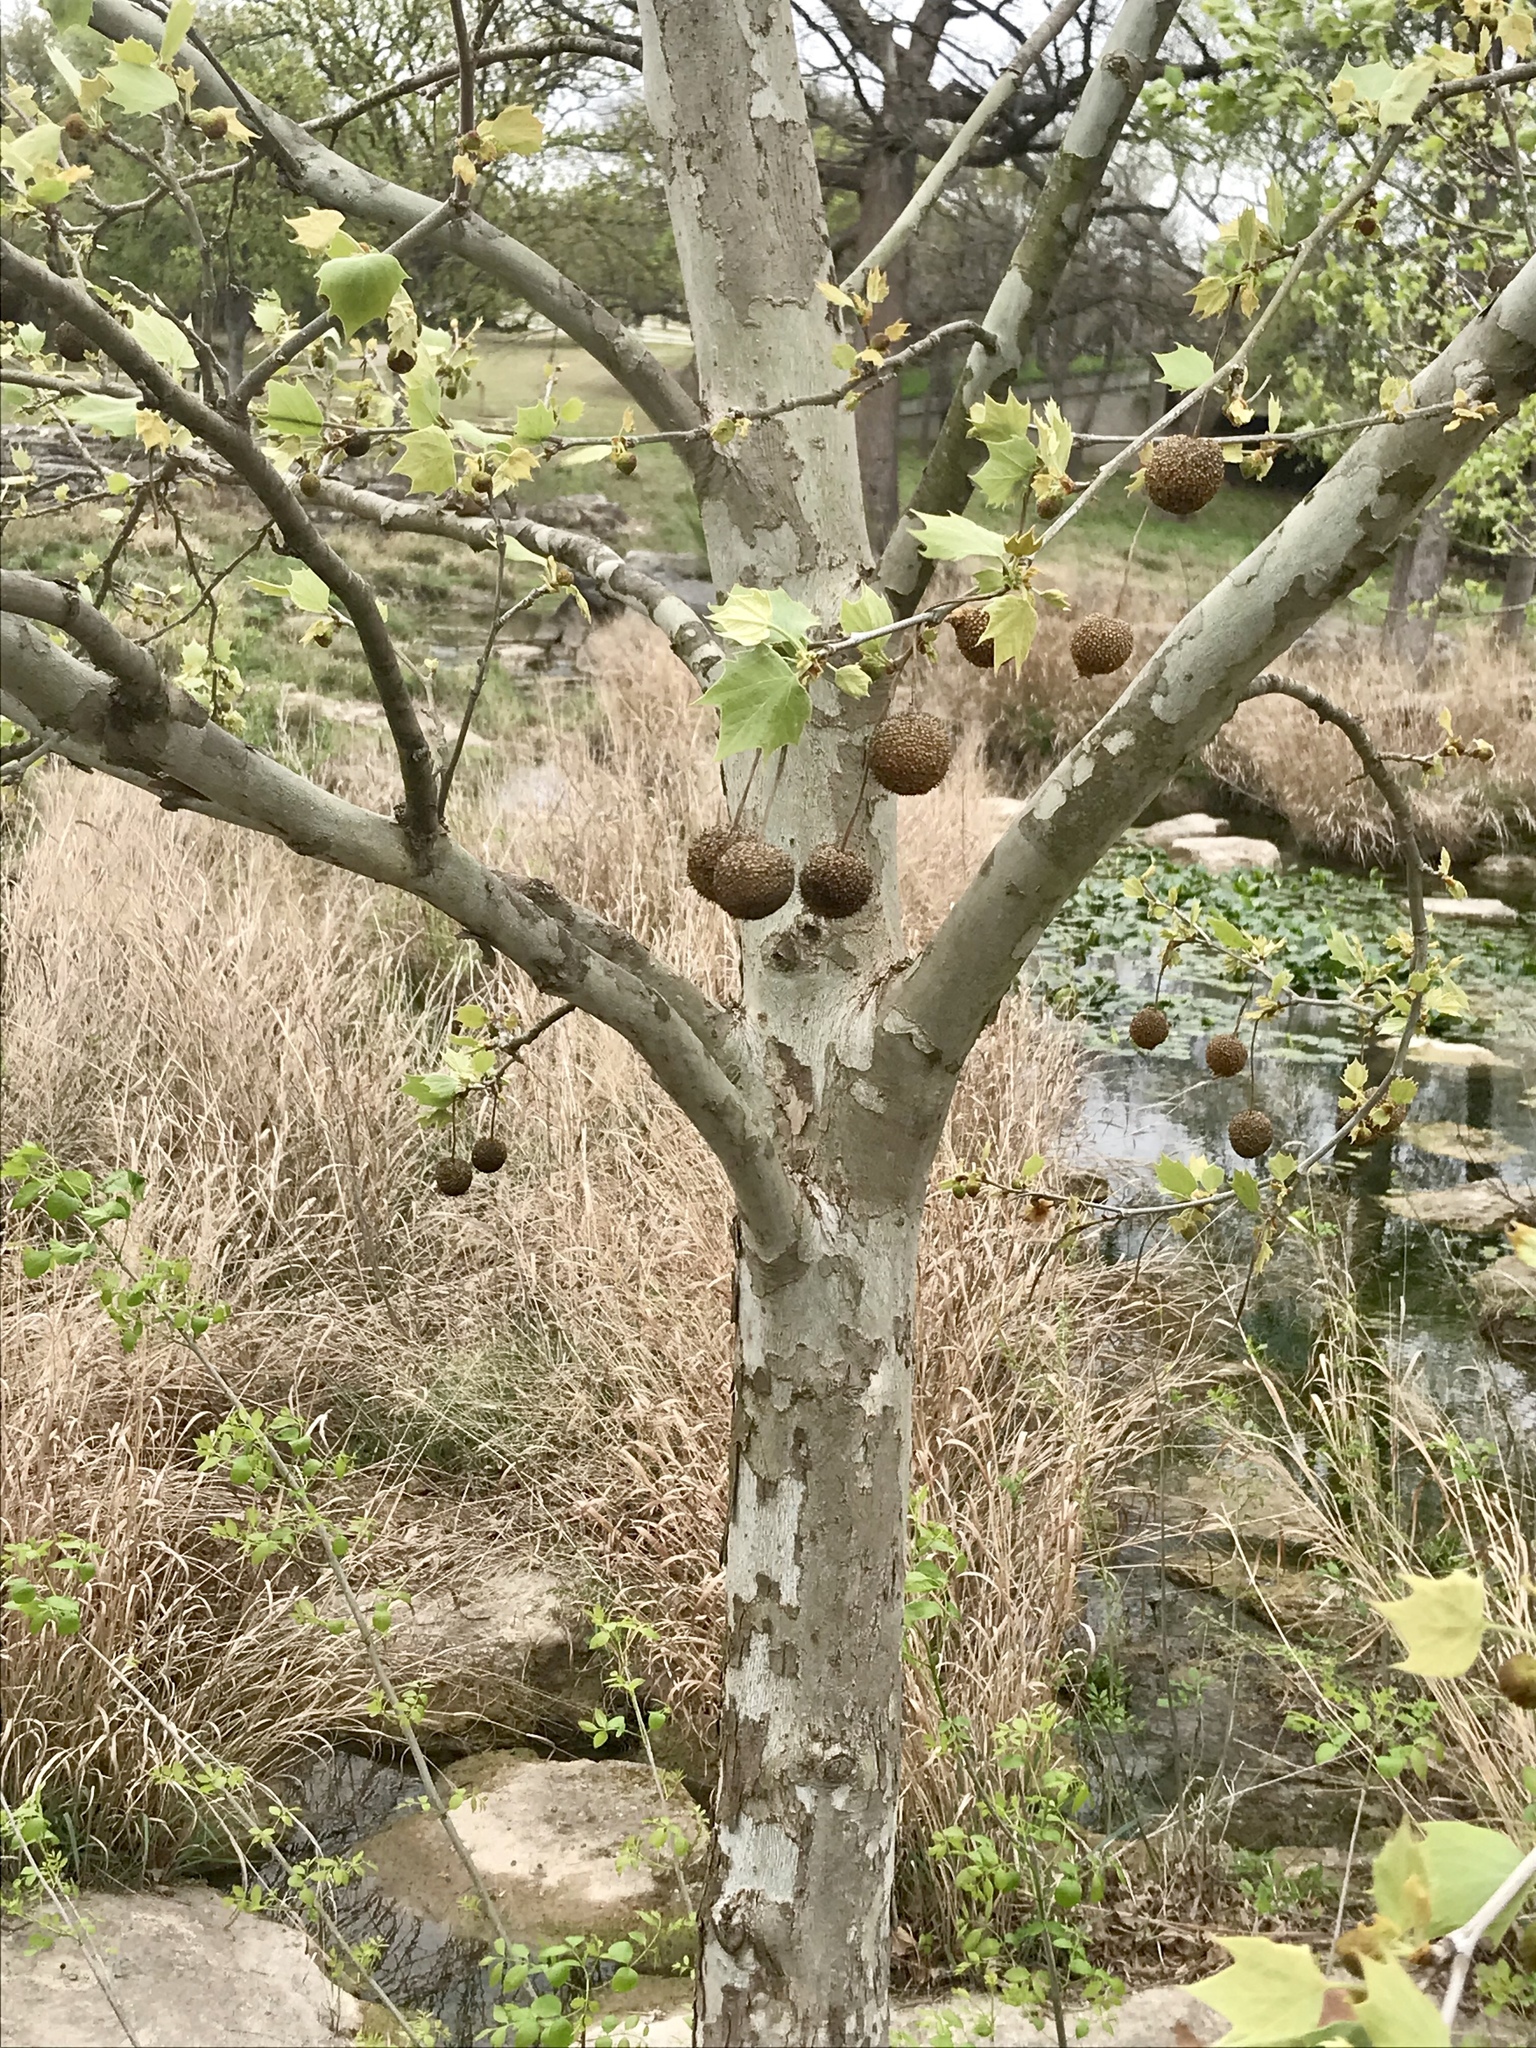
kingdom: Plantae
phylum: Tracheophyta
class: Magnoliopsida
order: Proteales
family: Platanaceae
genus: Platanus
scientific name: Platanus occidentalis
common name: American sycamore
